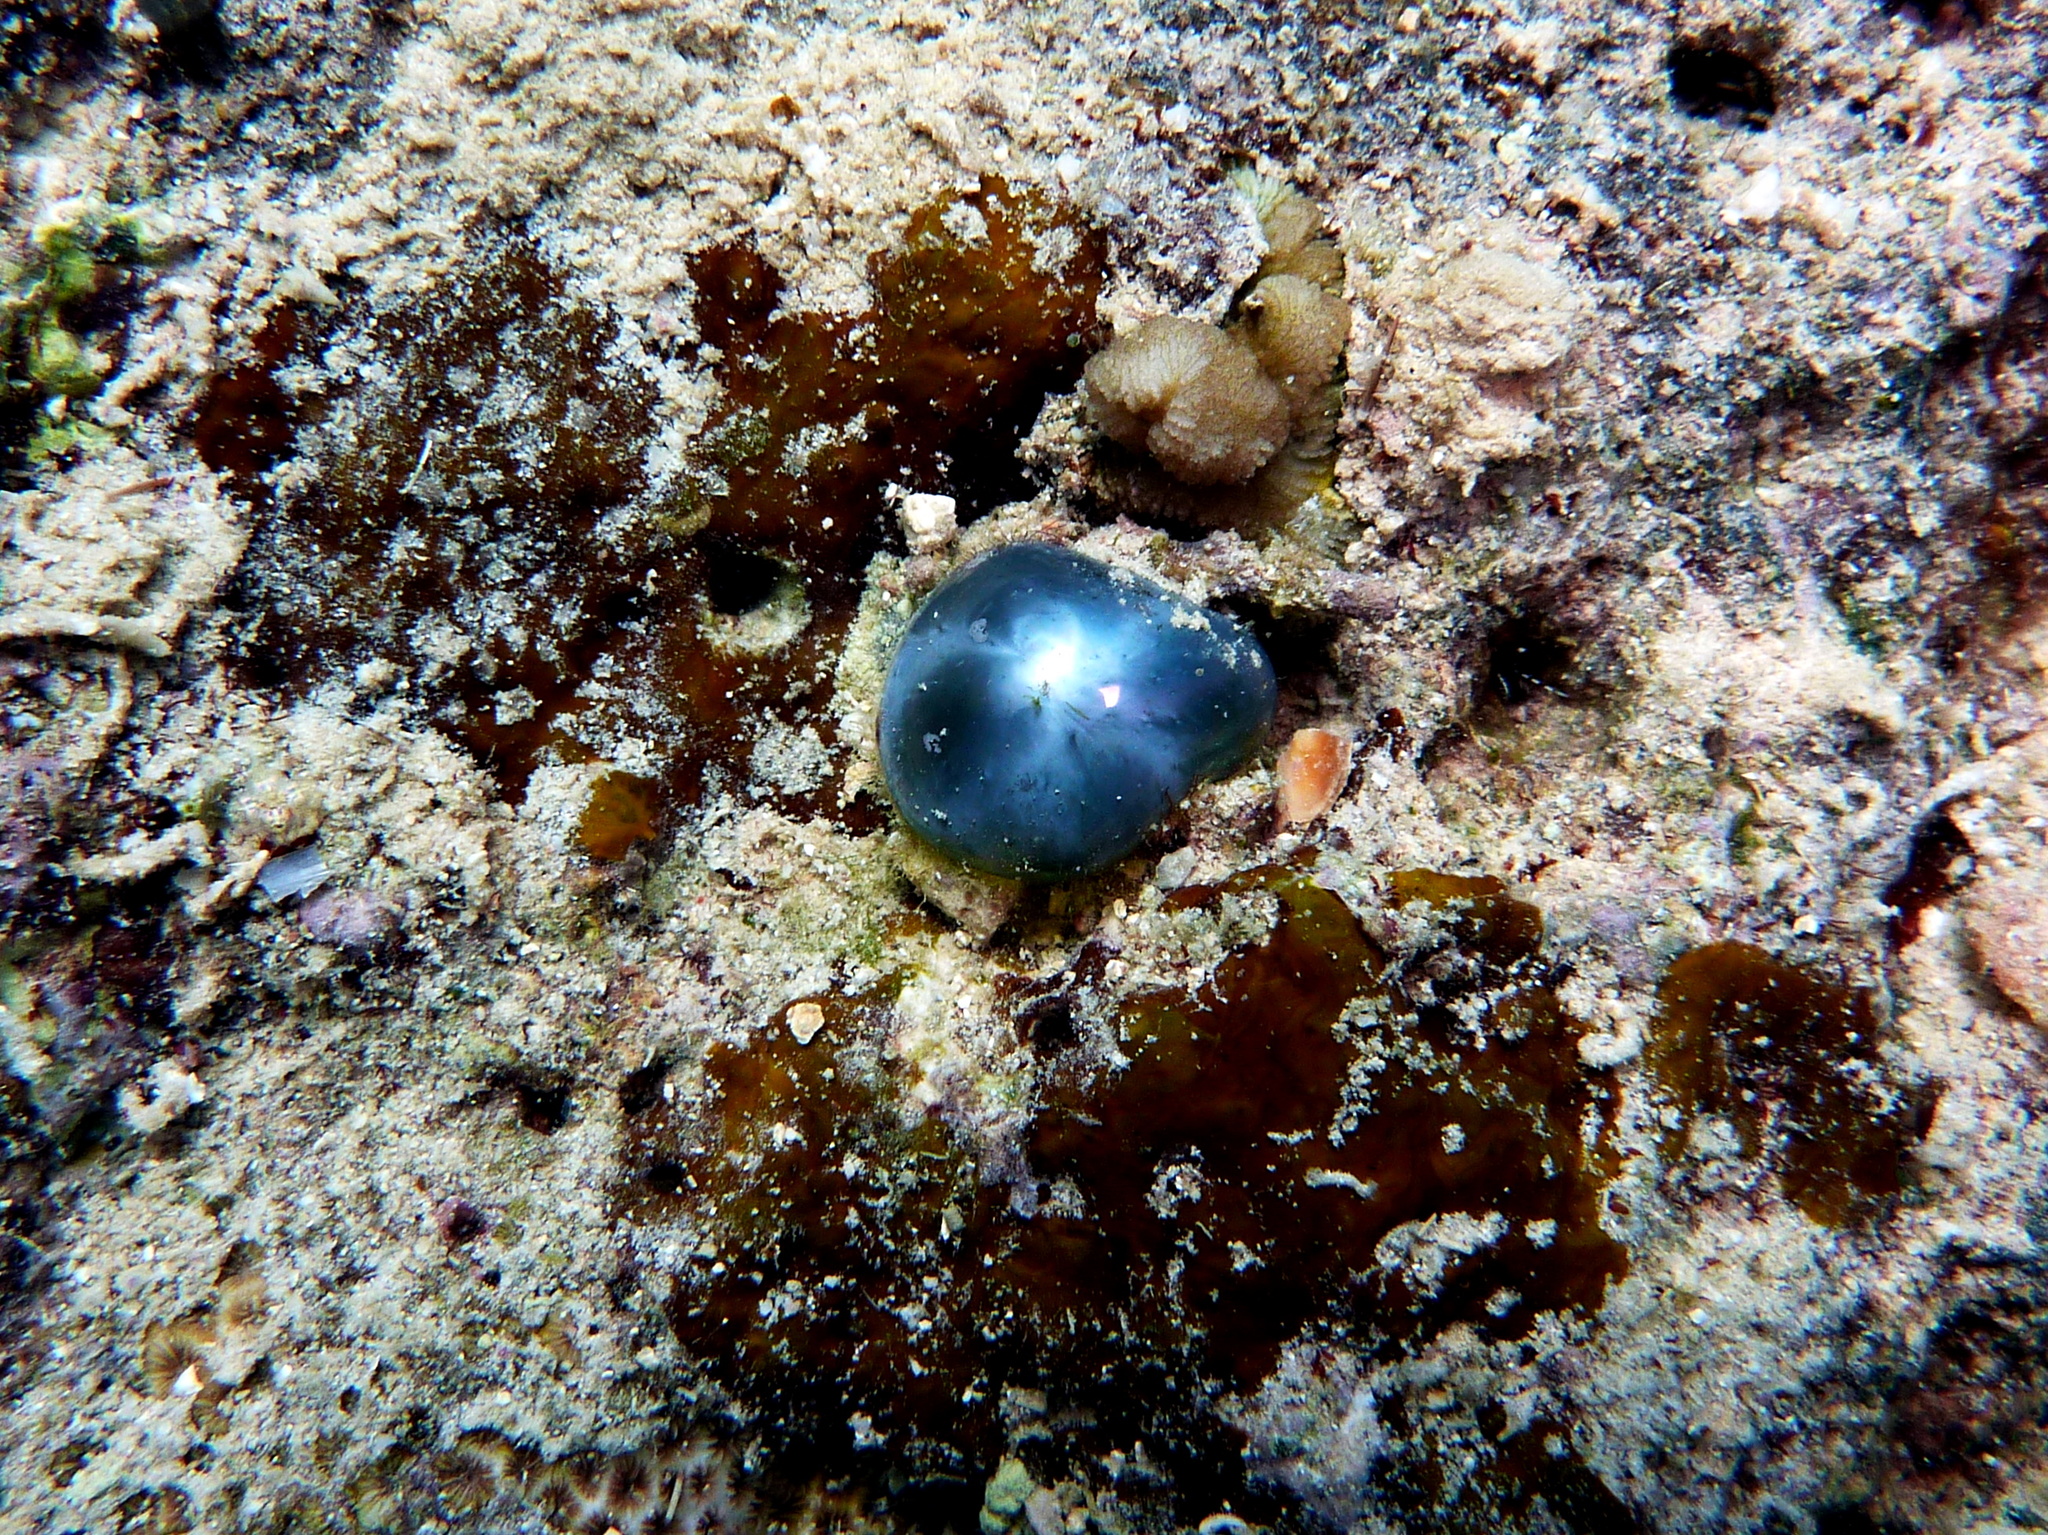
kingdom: Plantae
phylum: Chlorophyta
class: Ulvophyceae
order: Siphonocladales
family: Valoniaceae
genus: Valonia
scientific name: Valonia ventricosa
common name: Sea pearl
